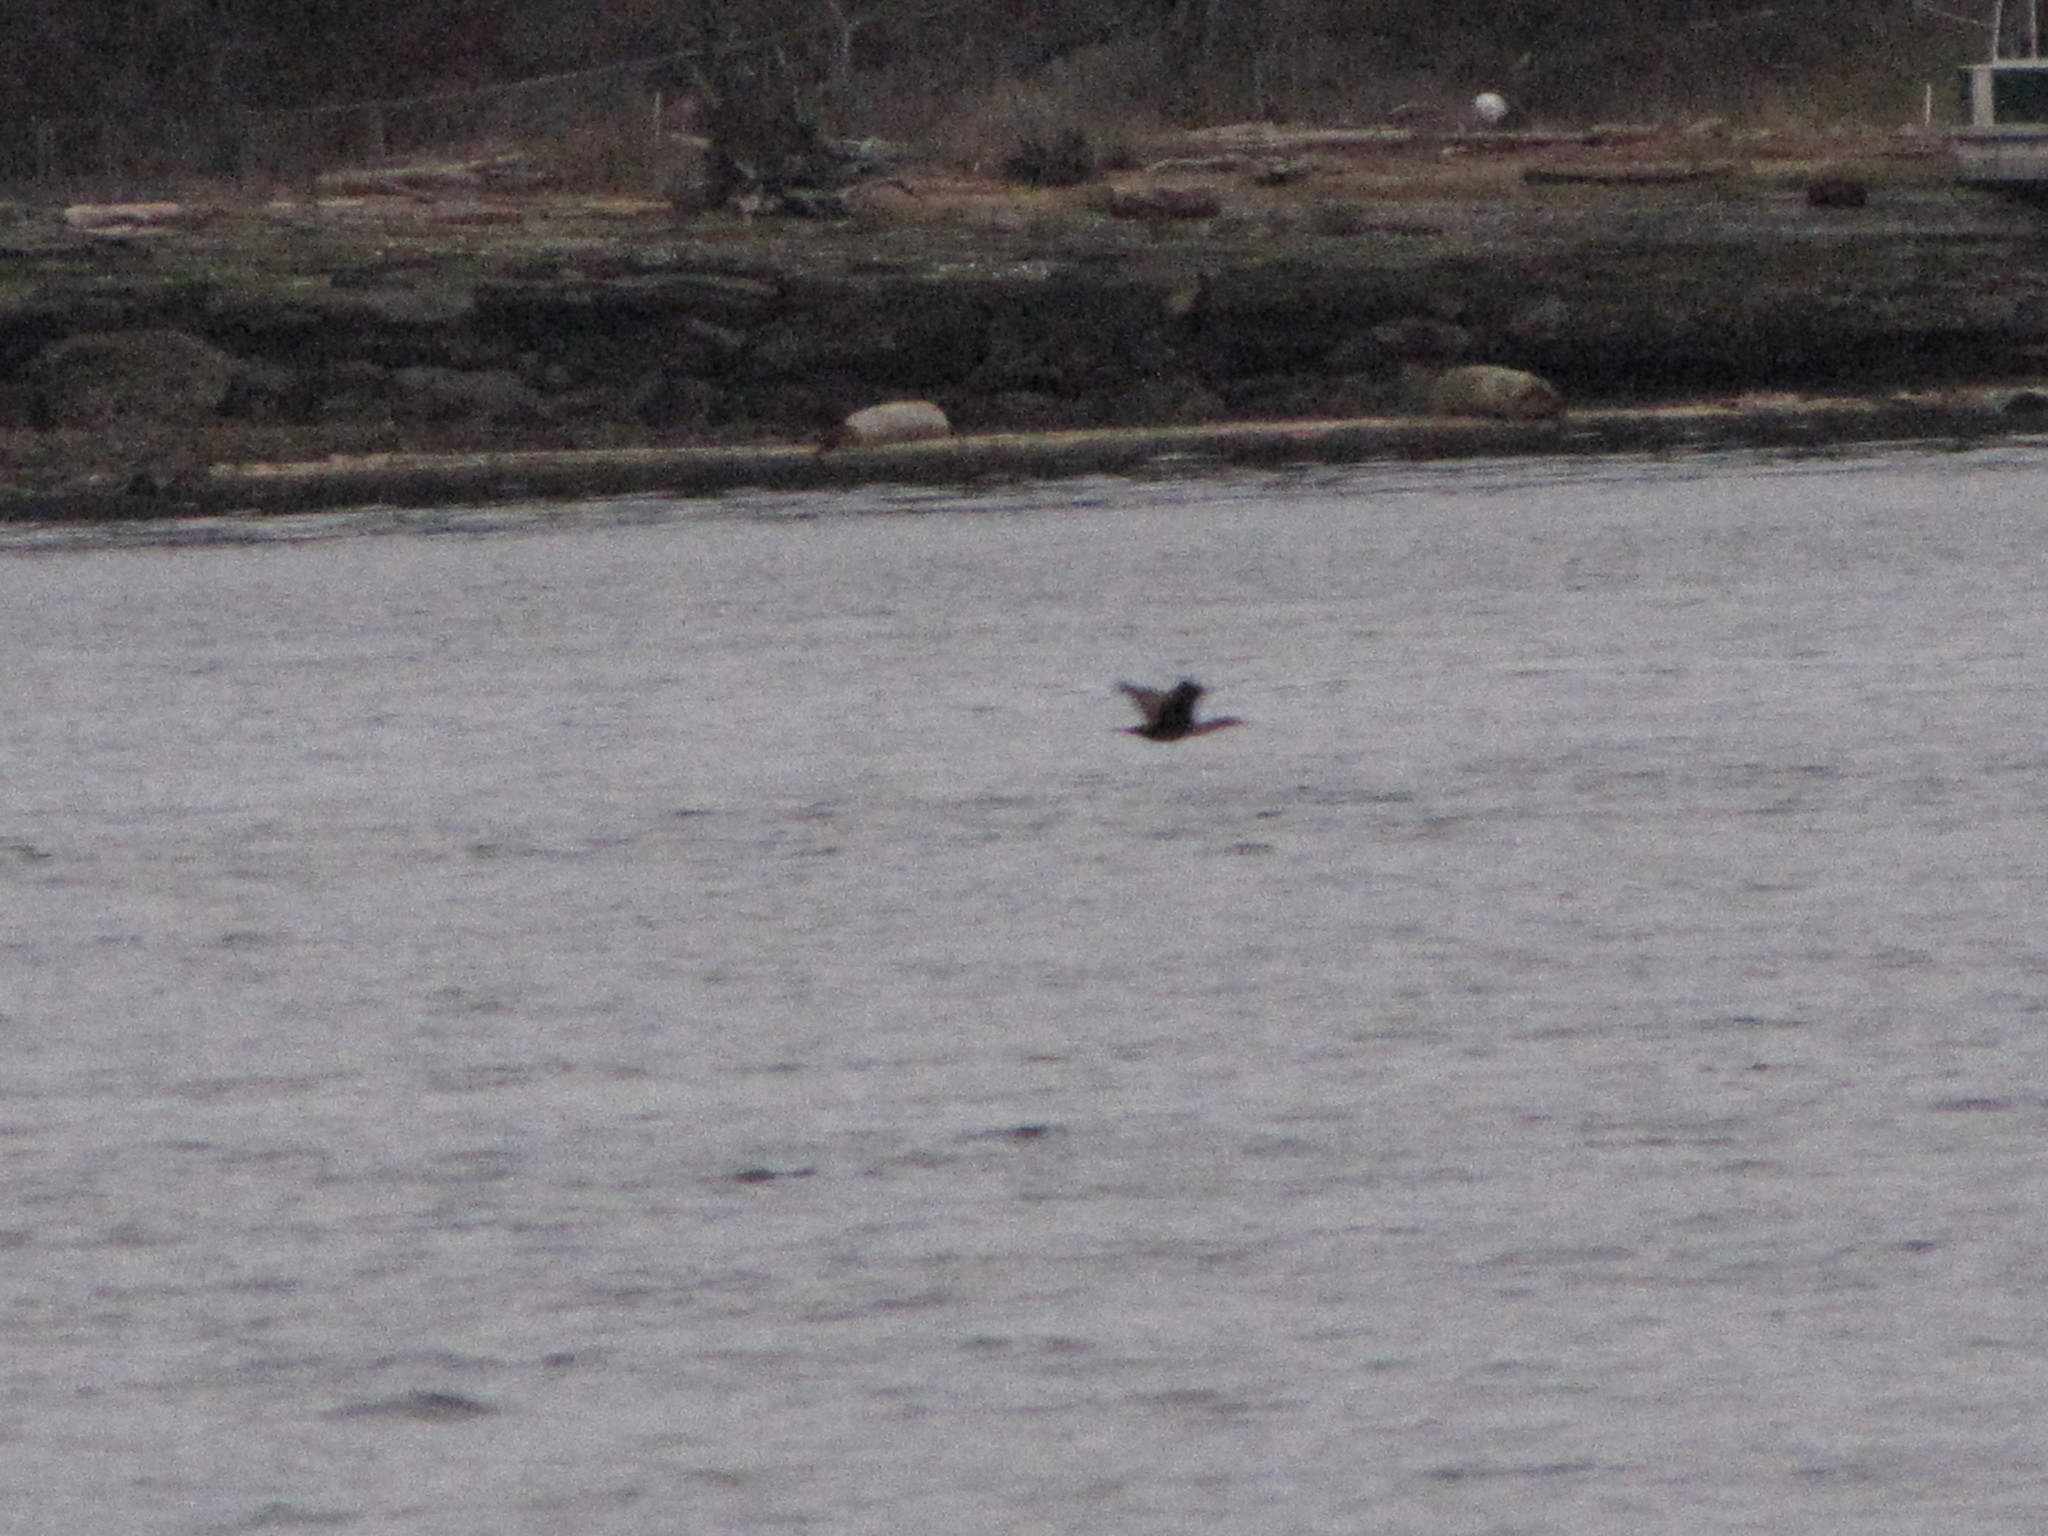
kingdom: Animalia
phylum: Chordata
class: Aves
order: Suliformes
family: Phalacrocoracidae
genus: Phalacrocorax
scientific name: Phalacrocorax auritus
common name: Double-crested cormorant
